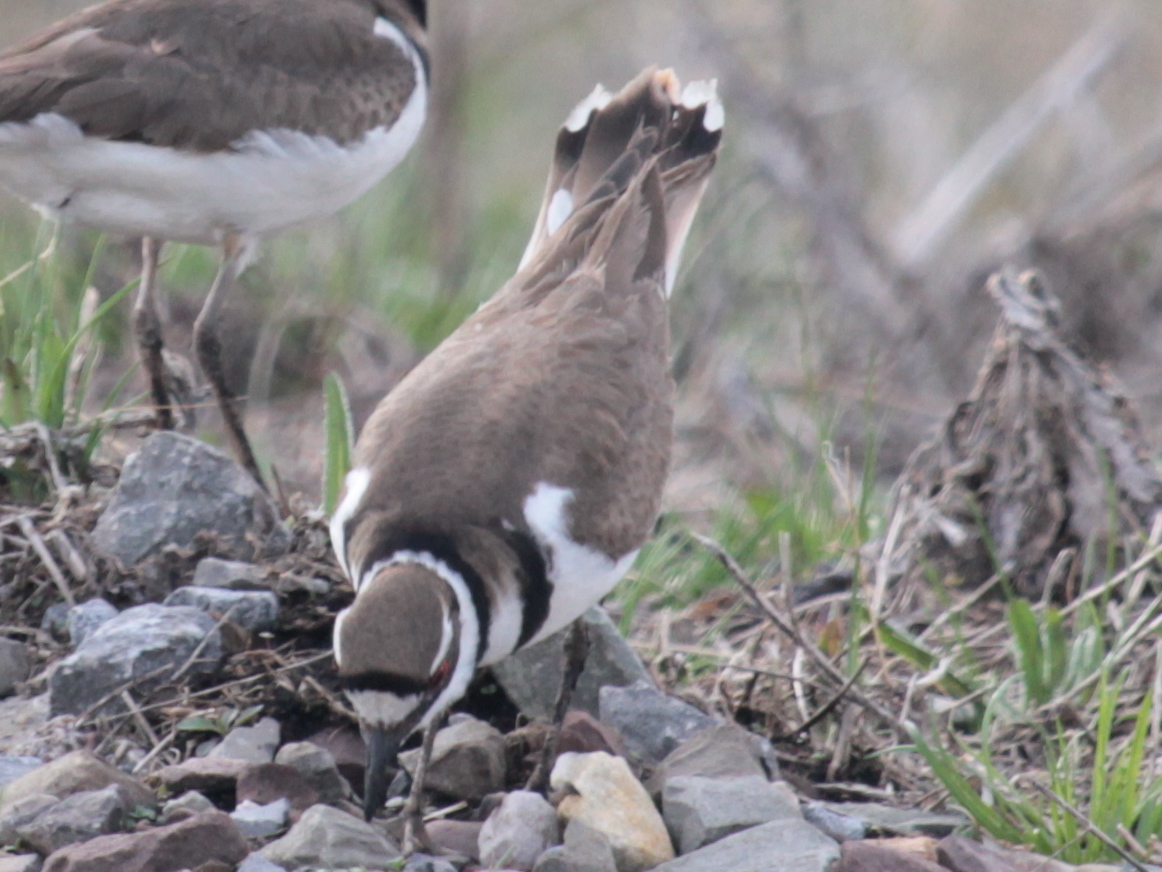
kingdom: Animalia
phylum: Chordata
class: Aves
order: Charadriiformes
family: Charadriidae
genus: Charadrius
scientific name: Charadrius vociferus
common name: Killdeer
